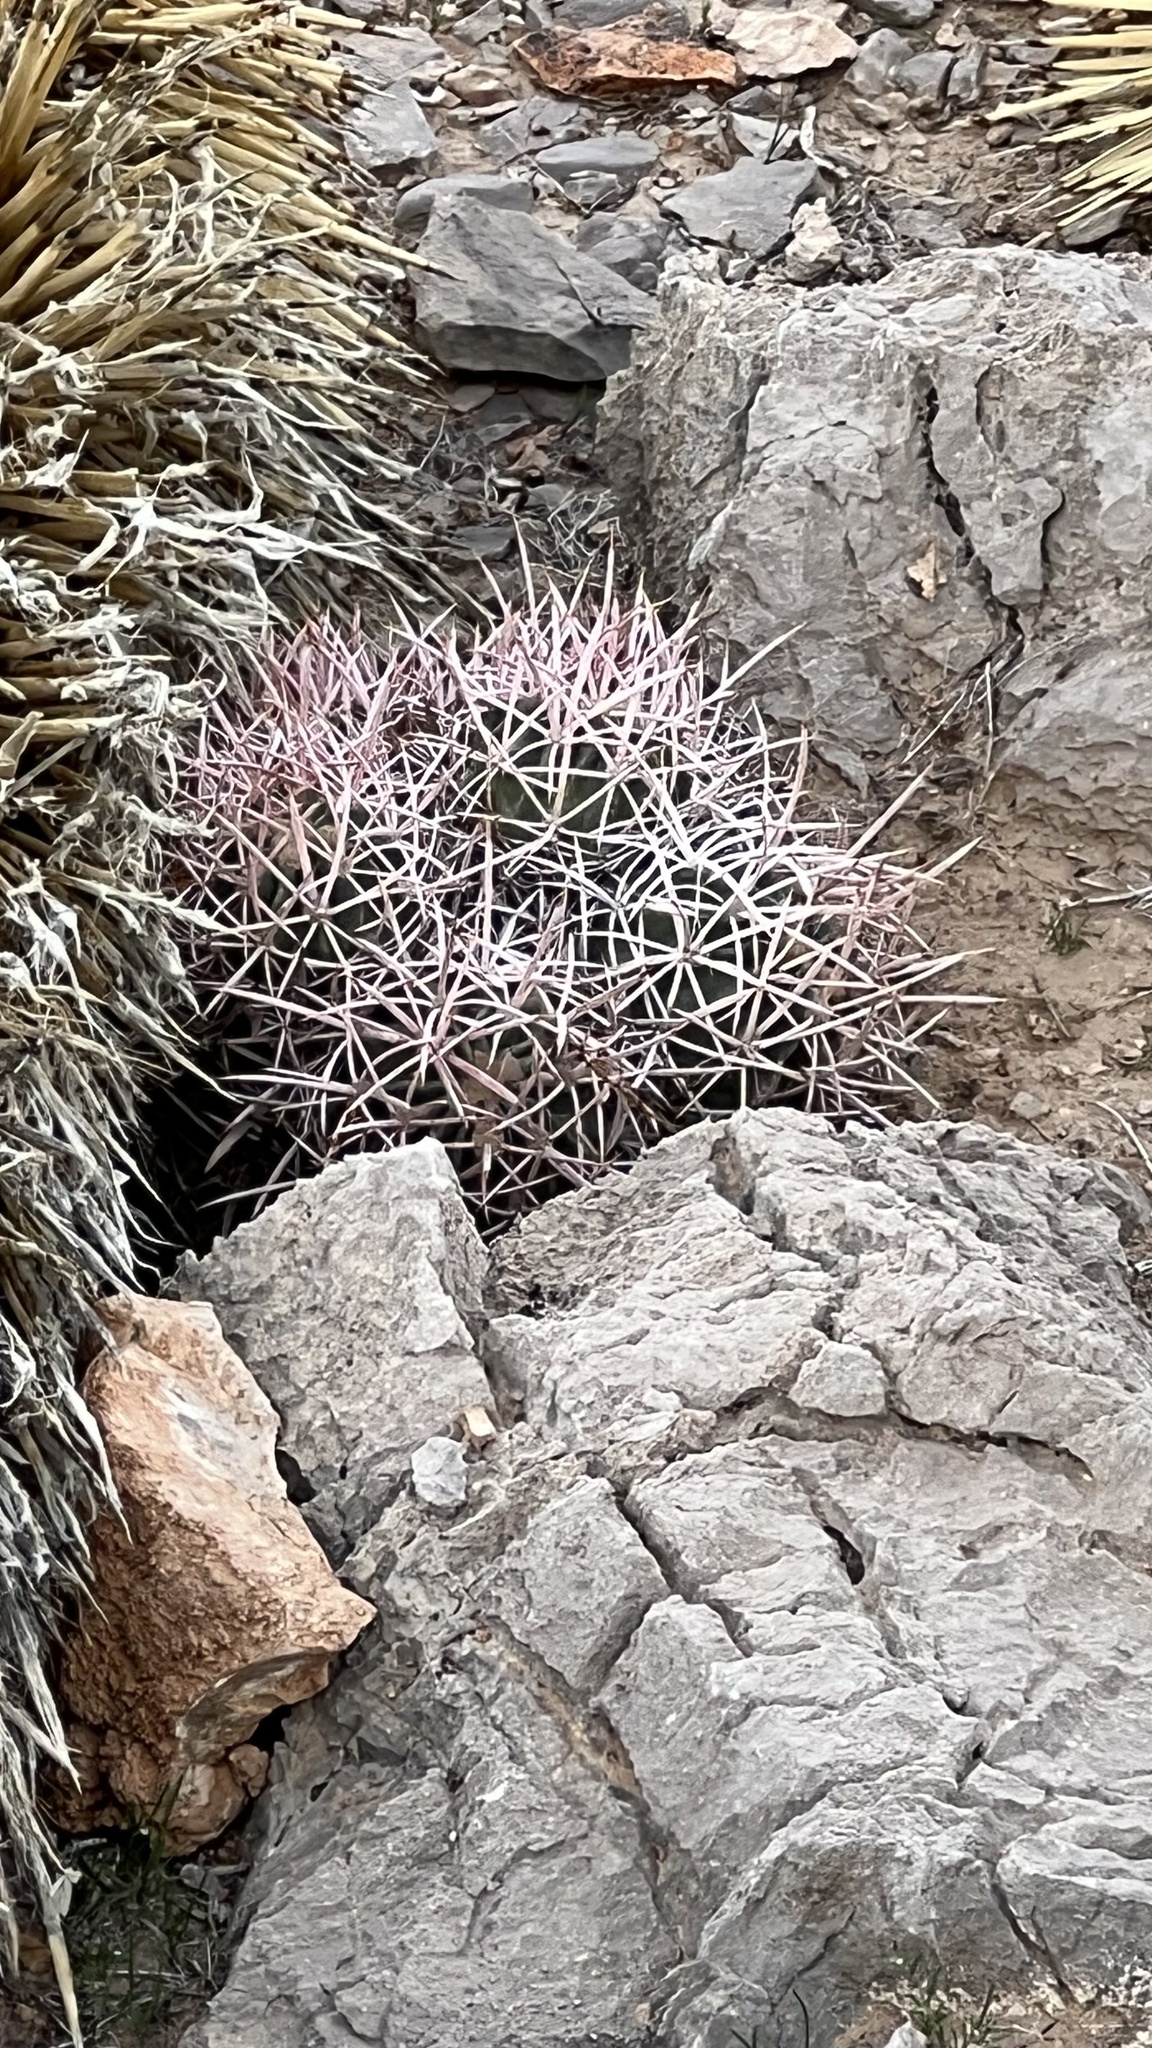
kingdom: Plantae
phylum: Tracheophyta
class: Magnoliopsida
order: Caryophyllales
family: Cactaceae
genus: Echinocactus
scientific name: Echinocactus polycephalus
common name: Cottontop cactus
